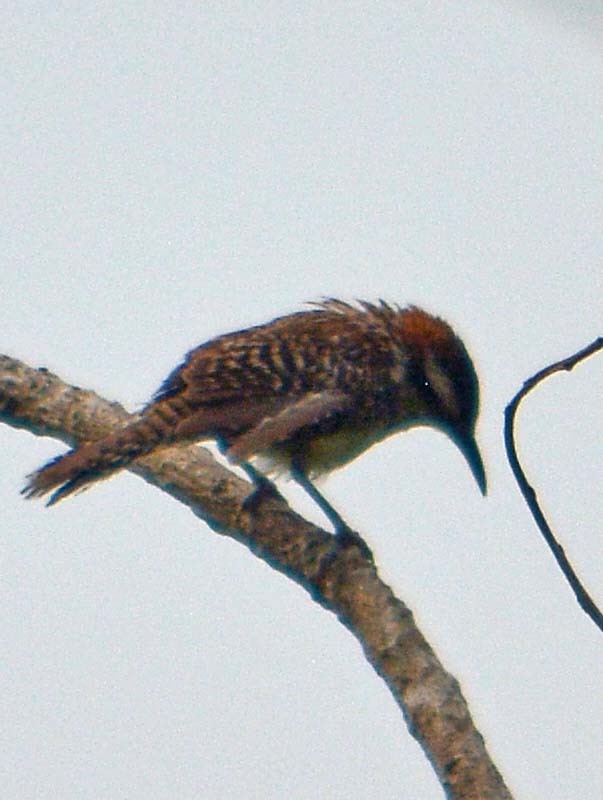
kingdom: Animalia
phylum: Chordata
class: Aves
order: Passeriformes
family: Troglodytidae
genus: Campylorhynchus
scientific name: Campylorhynchus rufinucha
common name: Rufous-naped wren
